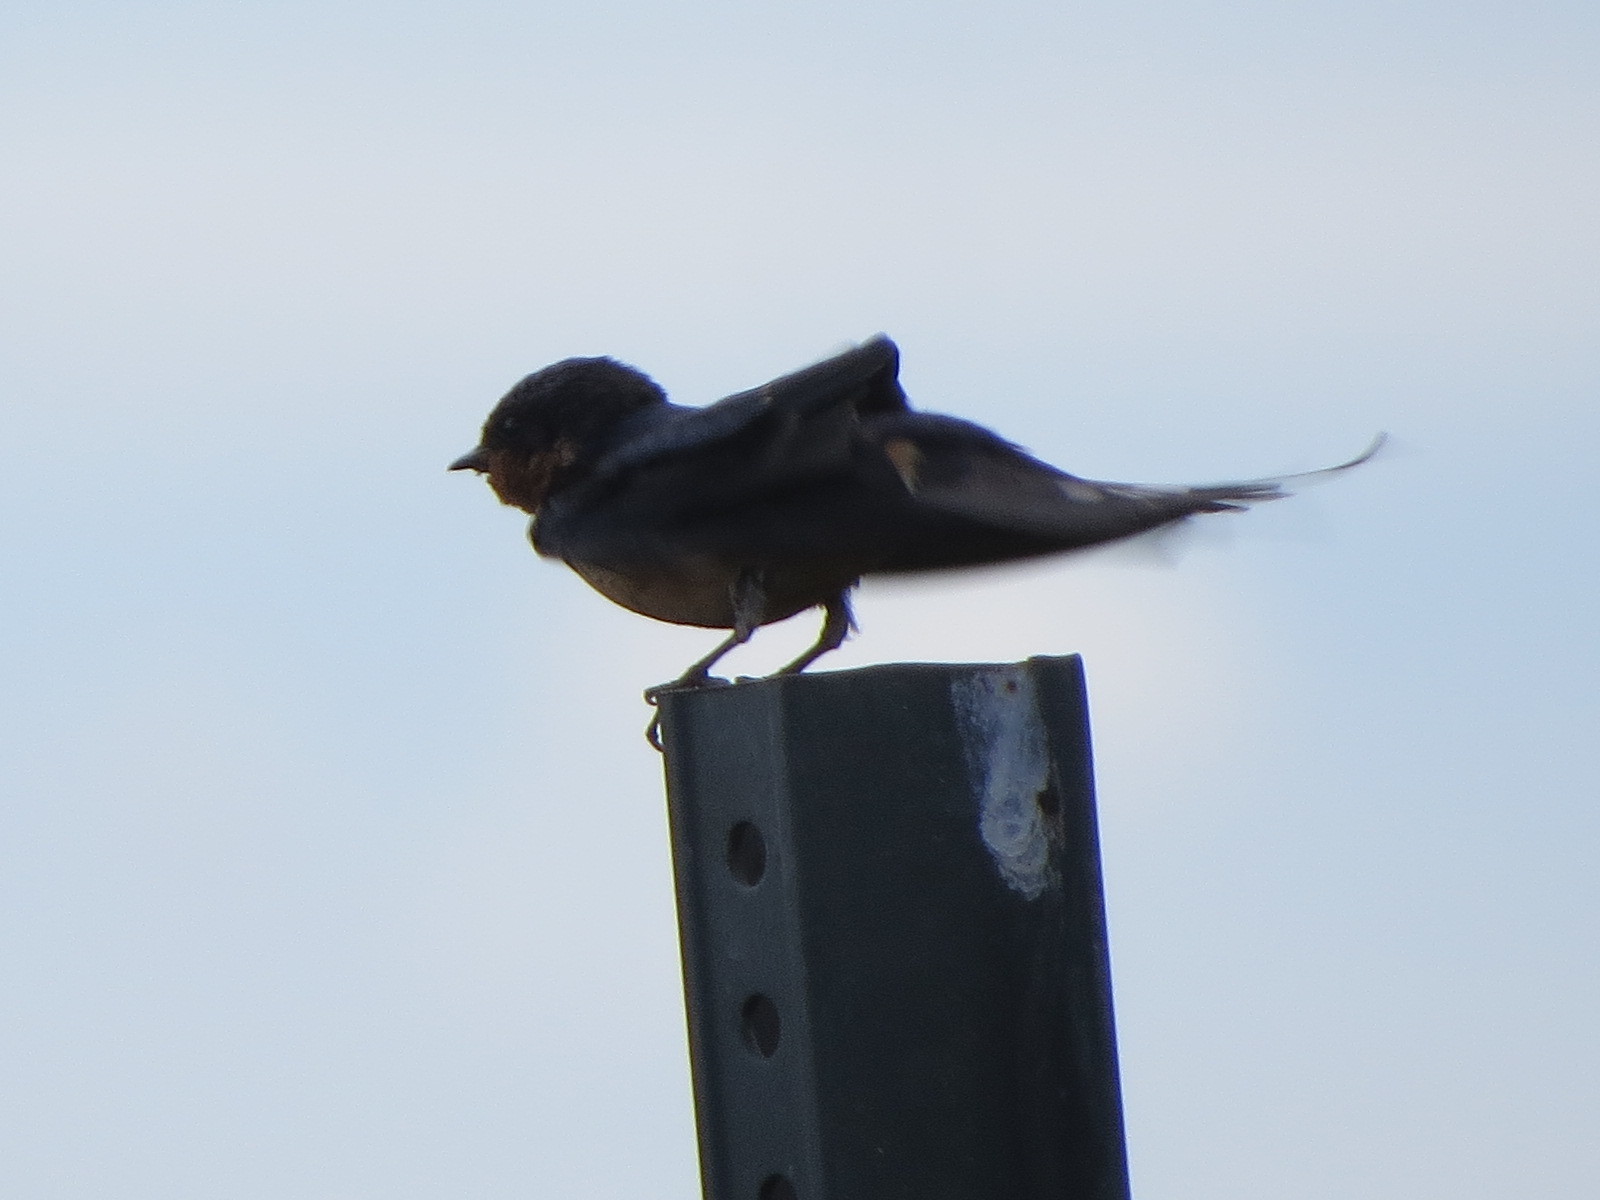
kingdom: Animalia
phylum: Chordata
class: Aves
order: Passeriformes
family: Hirundinidae
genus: Hirundo
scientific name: Hirundo rustica
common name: Barn swallow
